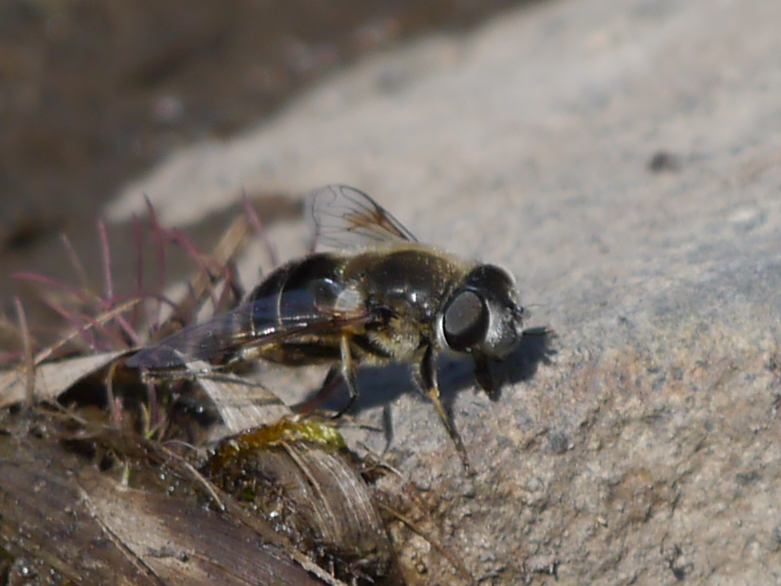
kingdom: Animalia
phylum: Arthropoda
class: Insecta
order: Diptera
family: Syrphidae
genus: Eristalis
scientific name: Eristalis rupium
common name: Hover fly
